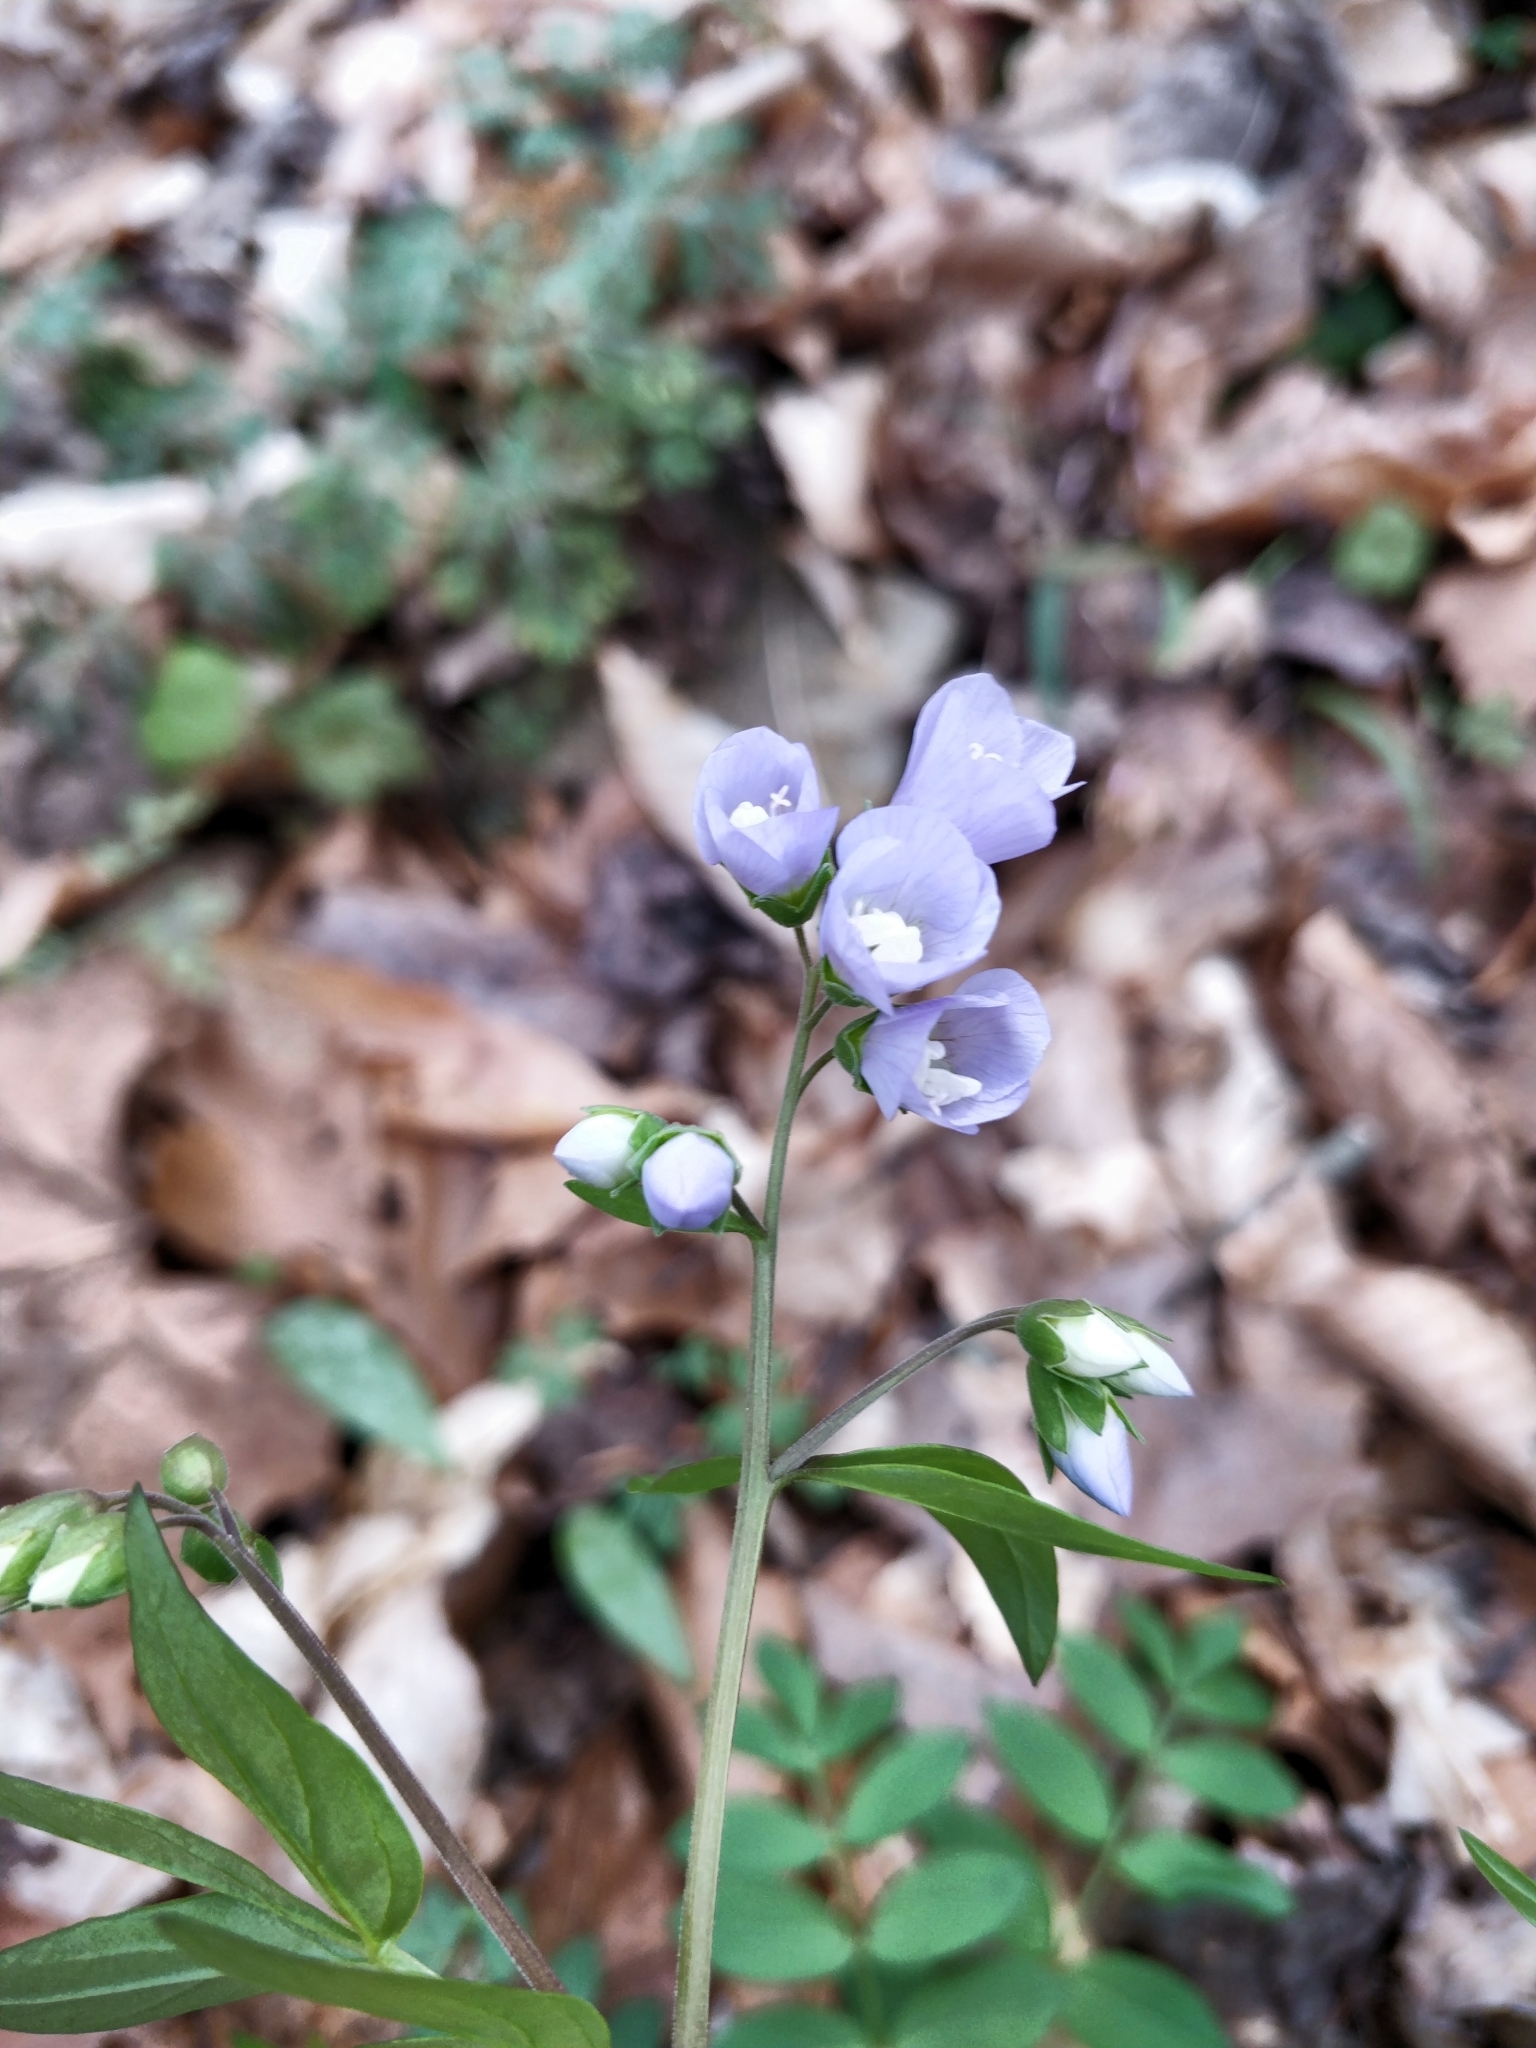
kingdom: Plantae
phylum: Tracheophyta
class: Magnoliopsida
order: Ericales
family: Polemoniaceae
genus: Polemonium
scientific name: Polemonium reptans
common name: Creeping jacob's-ladder
